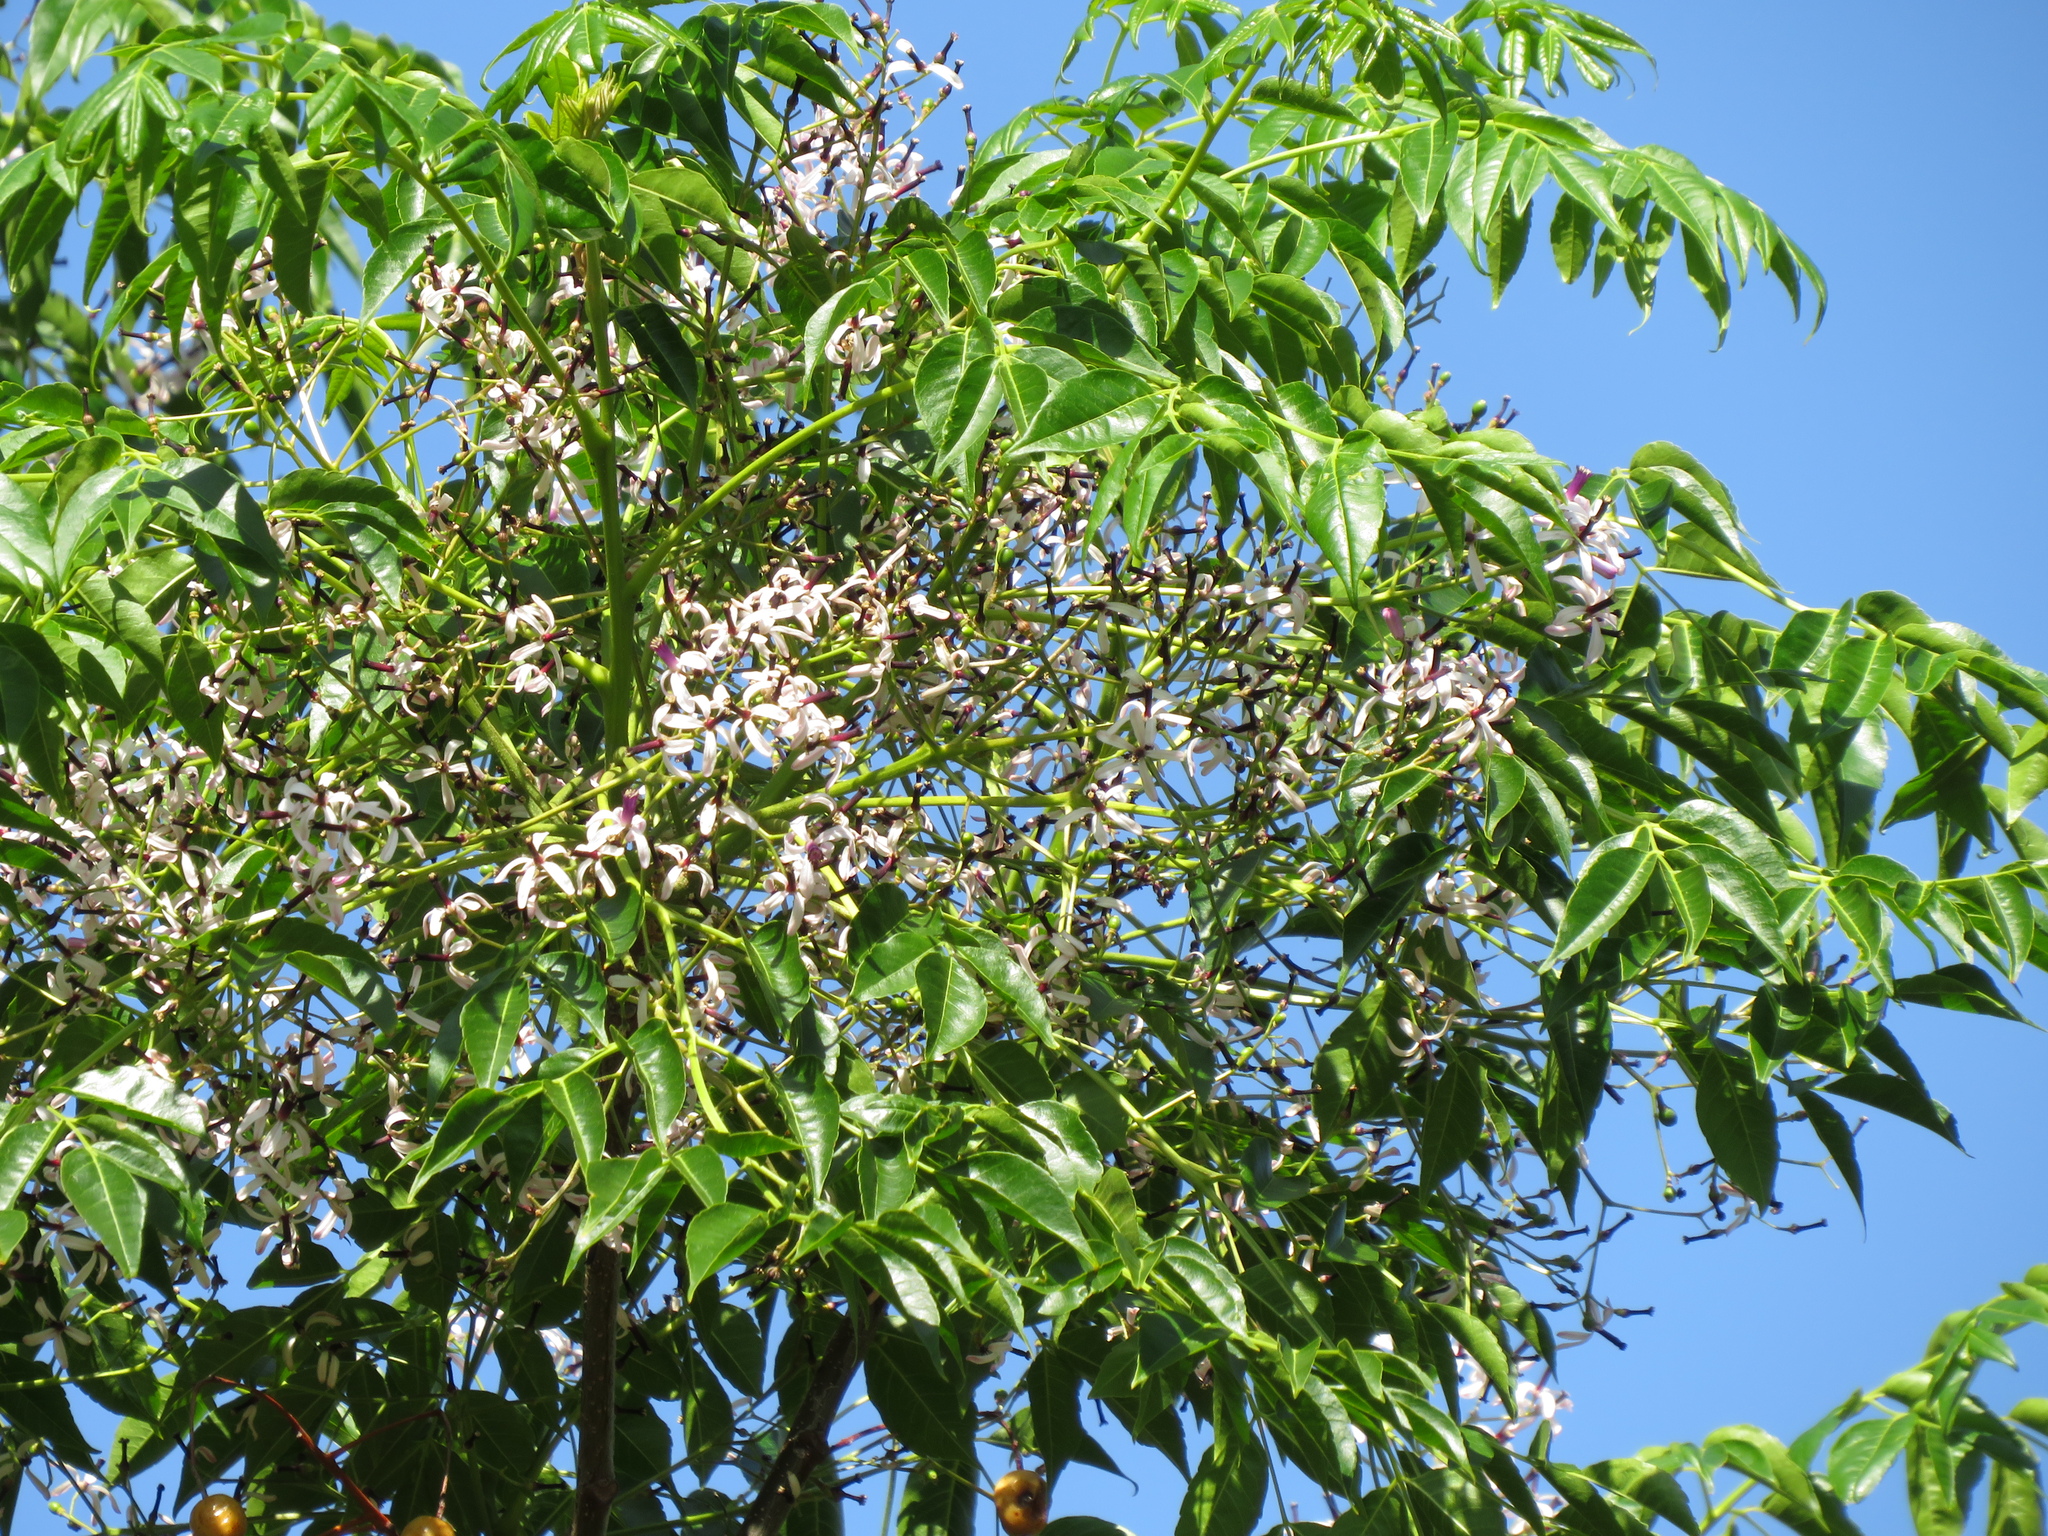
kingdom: Plantae
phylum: Tracheophyta
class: Magnoliopsida
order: Sapindales
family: Meliaceae
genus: Melia
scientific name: Melia azedarach
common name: Chinaberrytree
